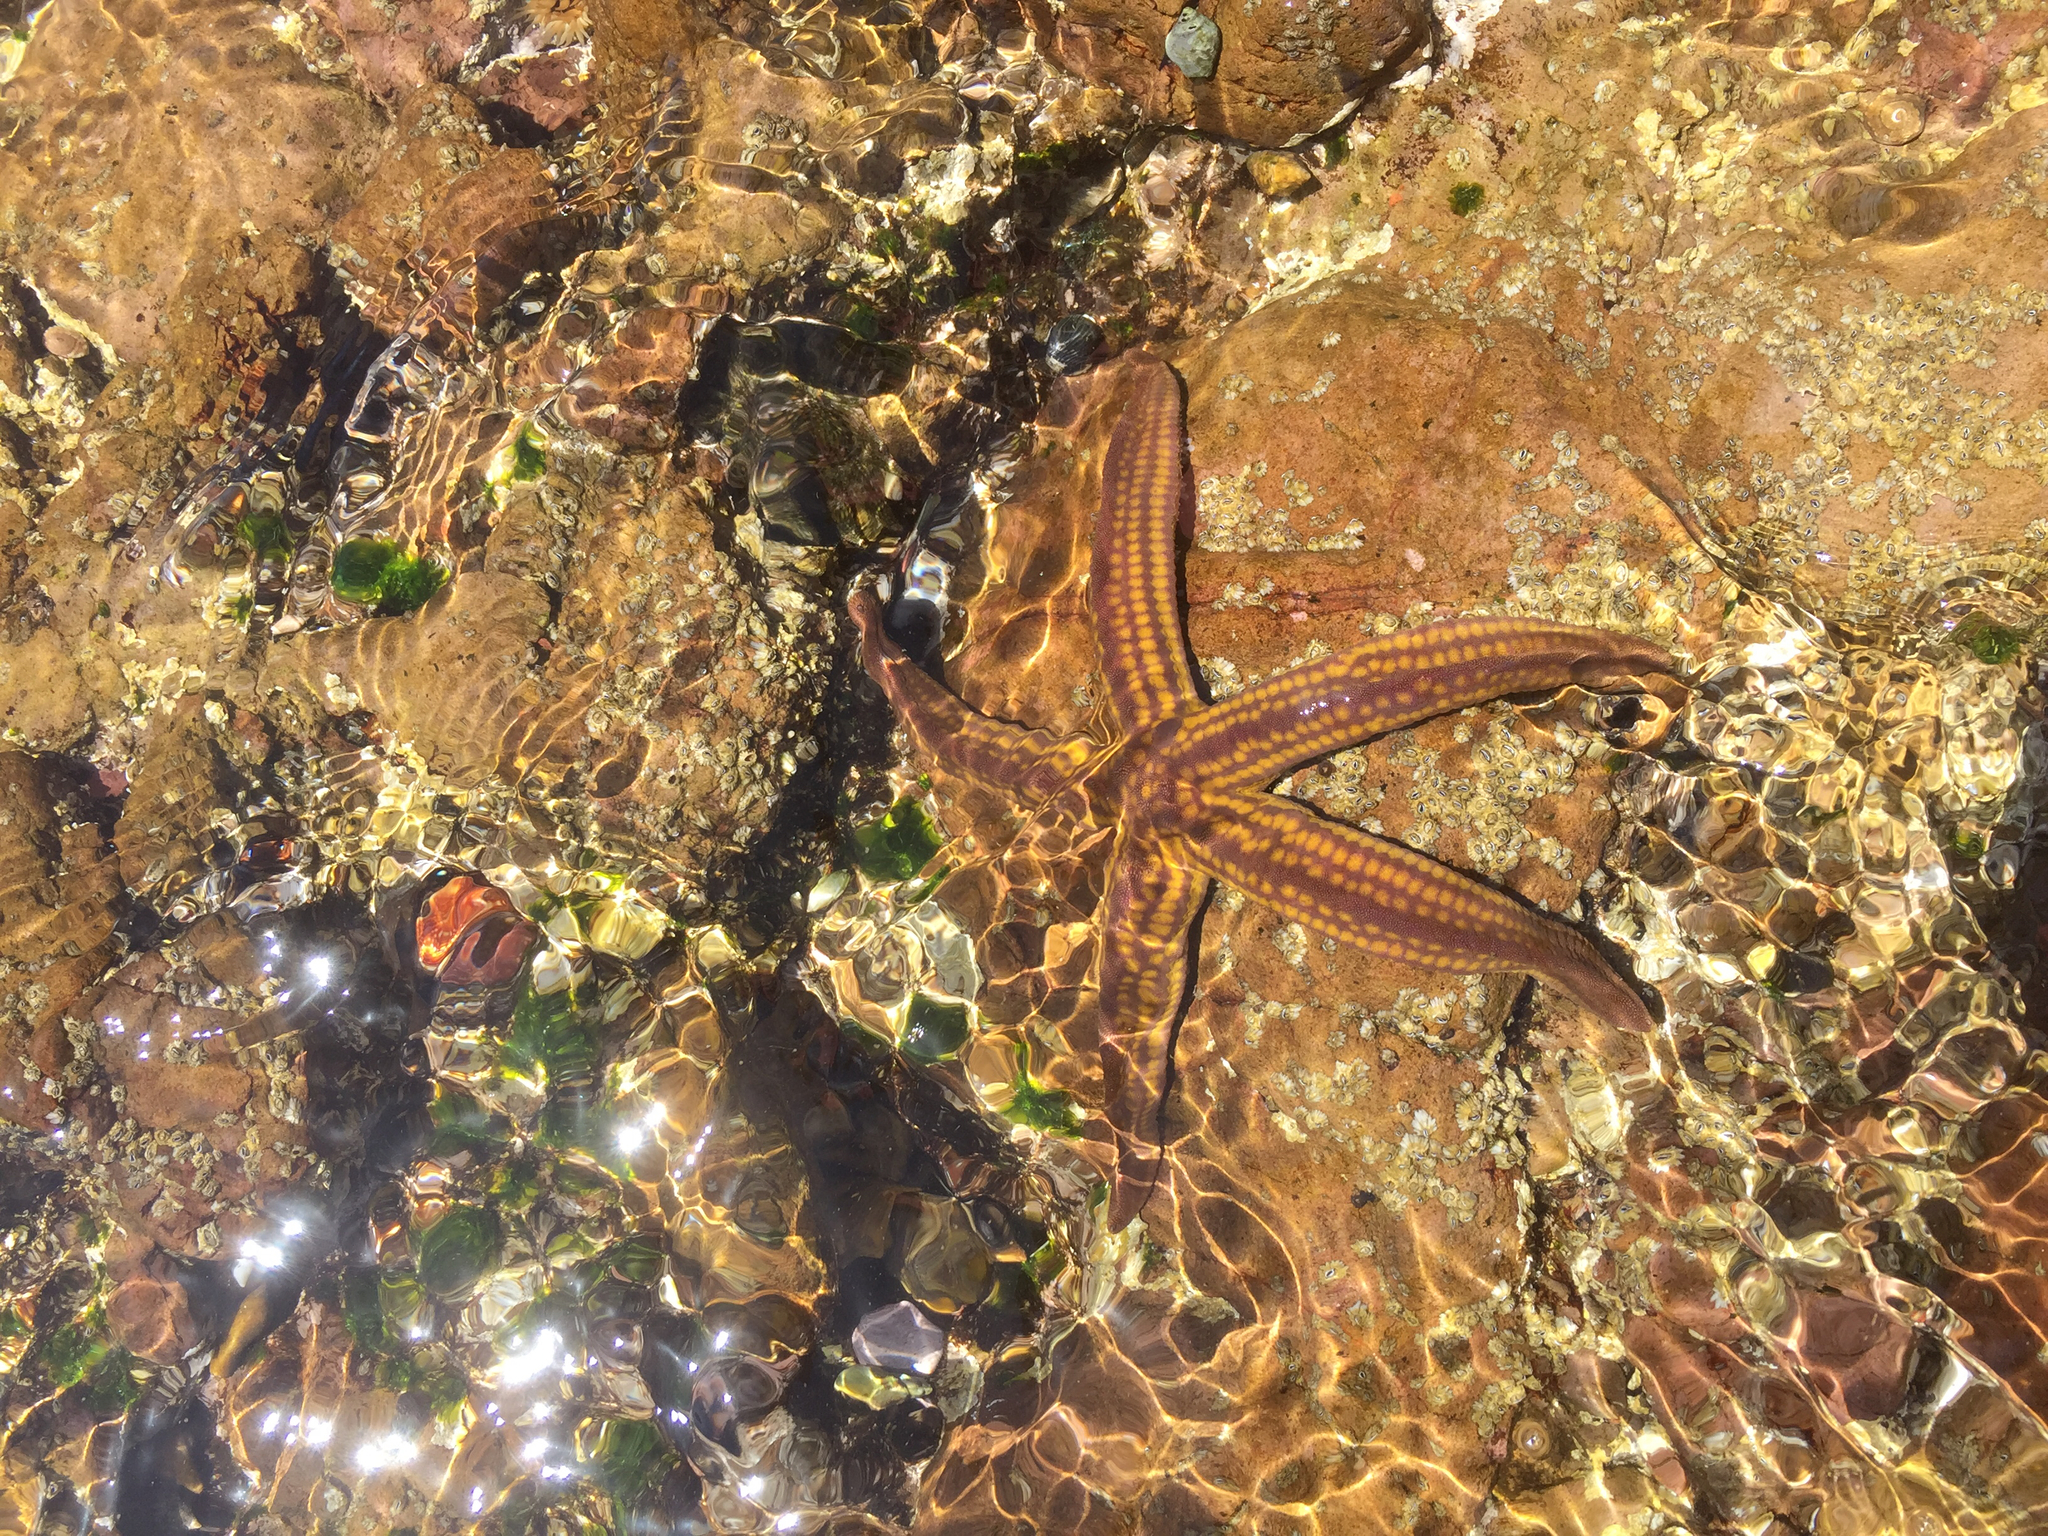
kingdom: Animalia
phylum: Echinodermata
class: Asteroidea
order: Valvatida
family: Ophidiasteridae
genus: Pharia
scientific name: Pharia pyramidata
